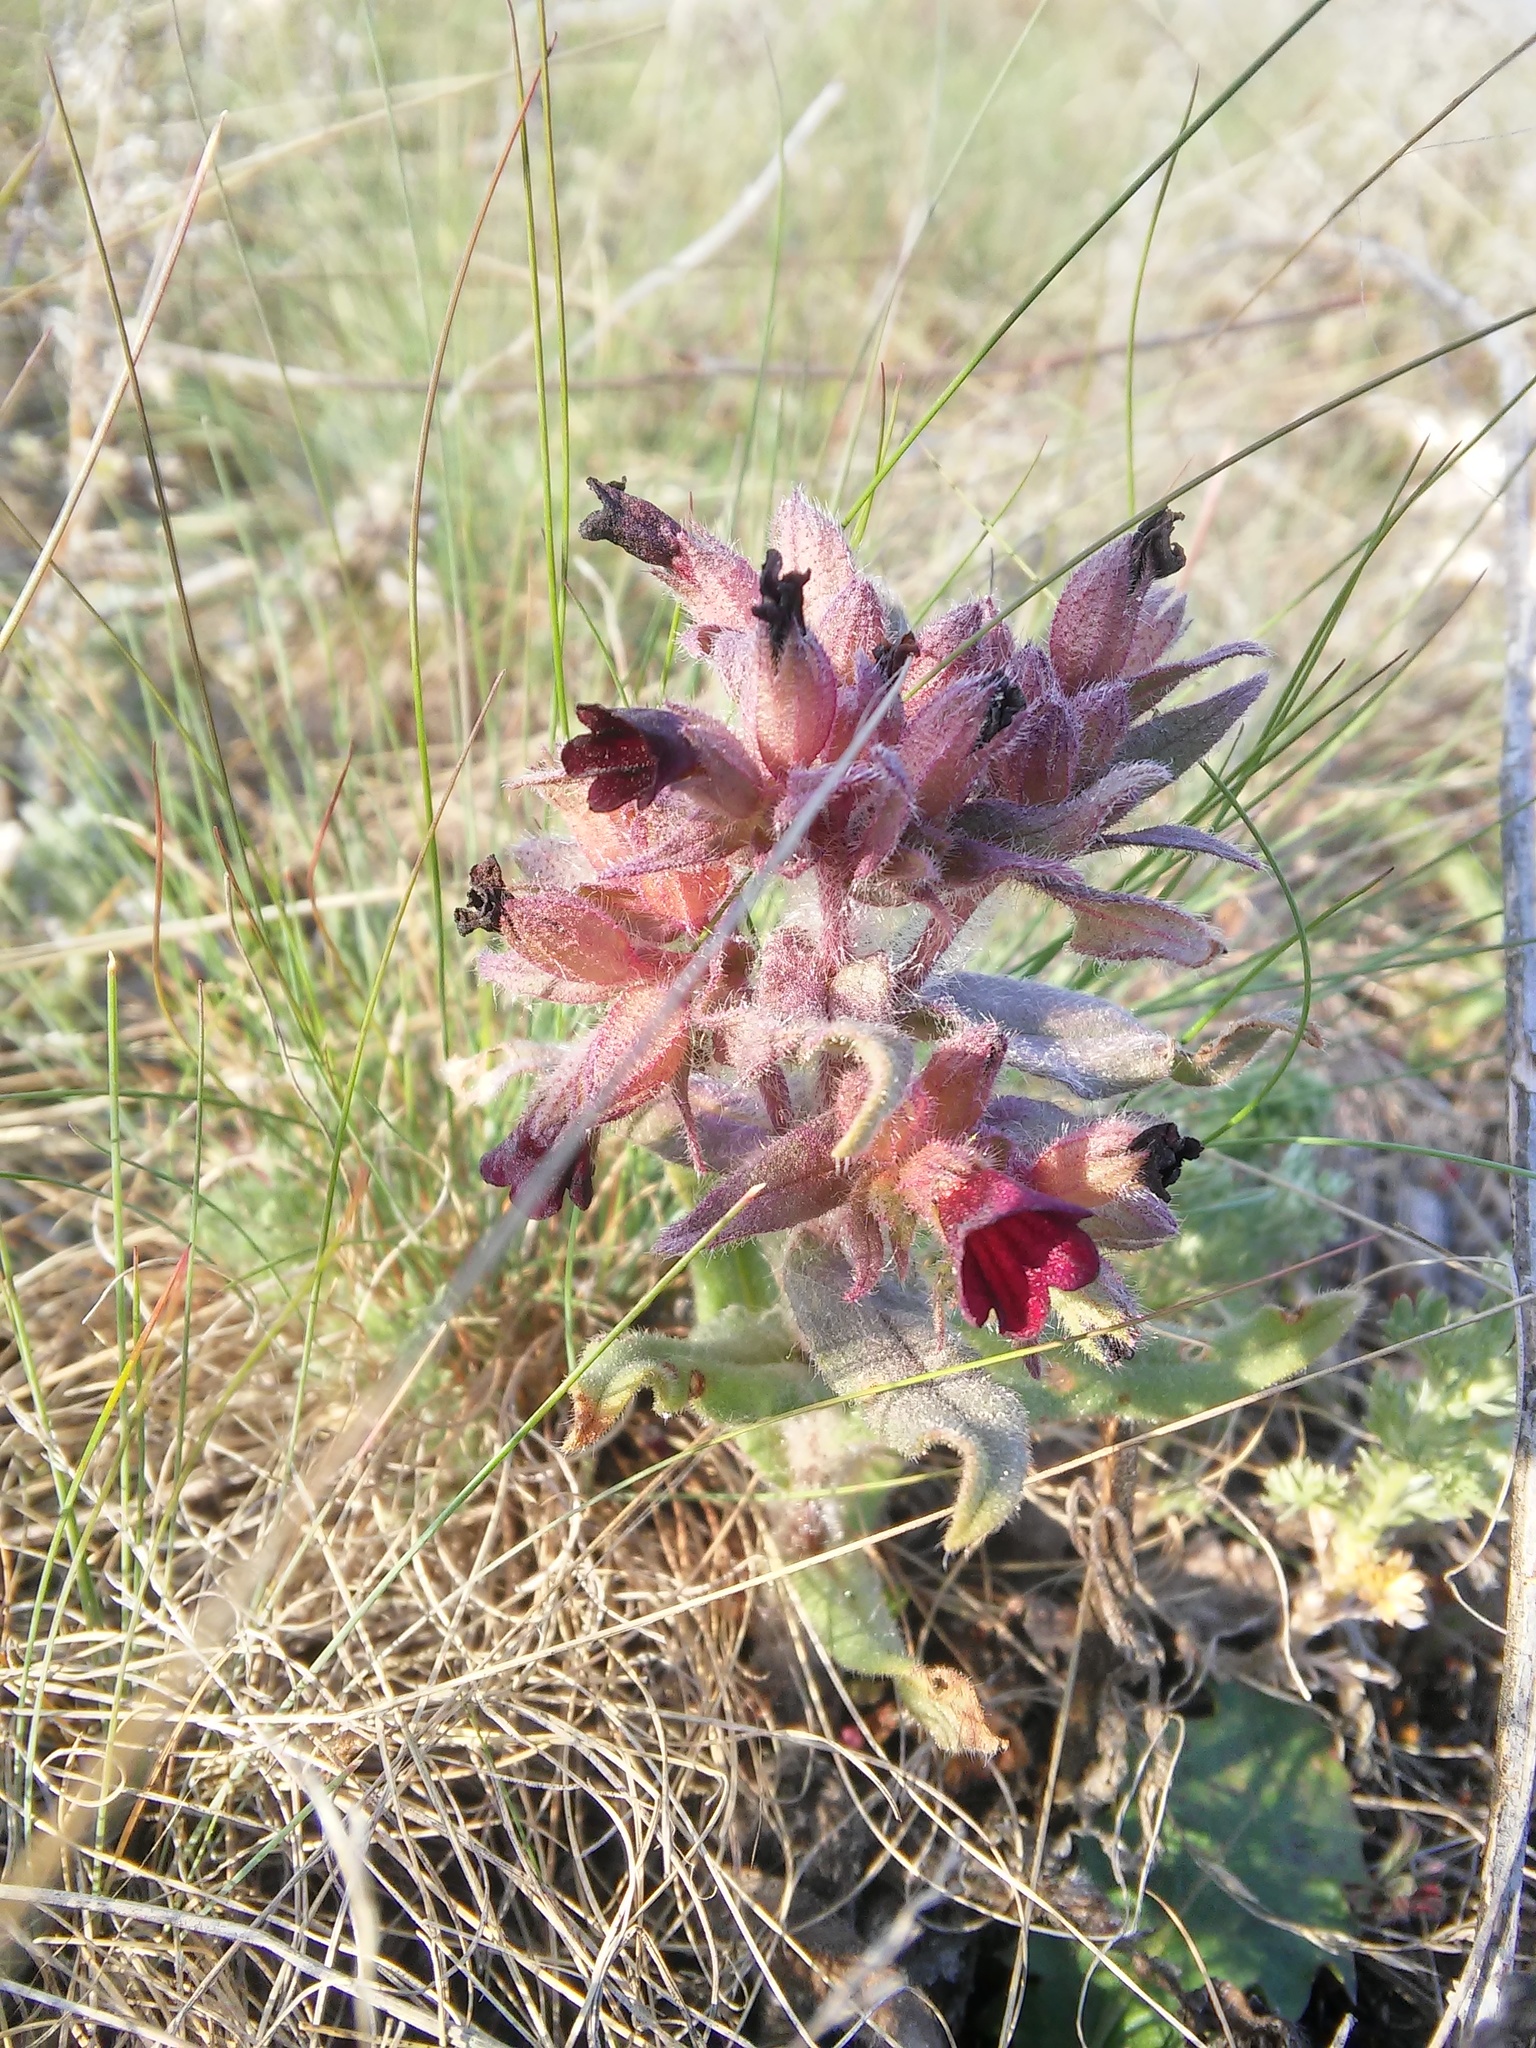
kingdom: Plantae
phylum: Tracheophyta
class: Magnoliopsida
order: Boraginales
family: Boraginaceae
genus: Nonea
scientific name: Nonea pulla
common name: Brown nonea
